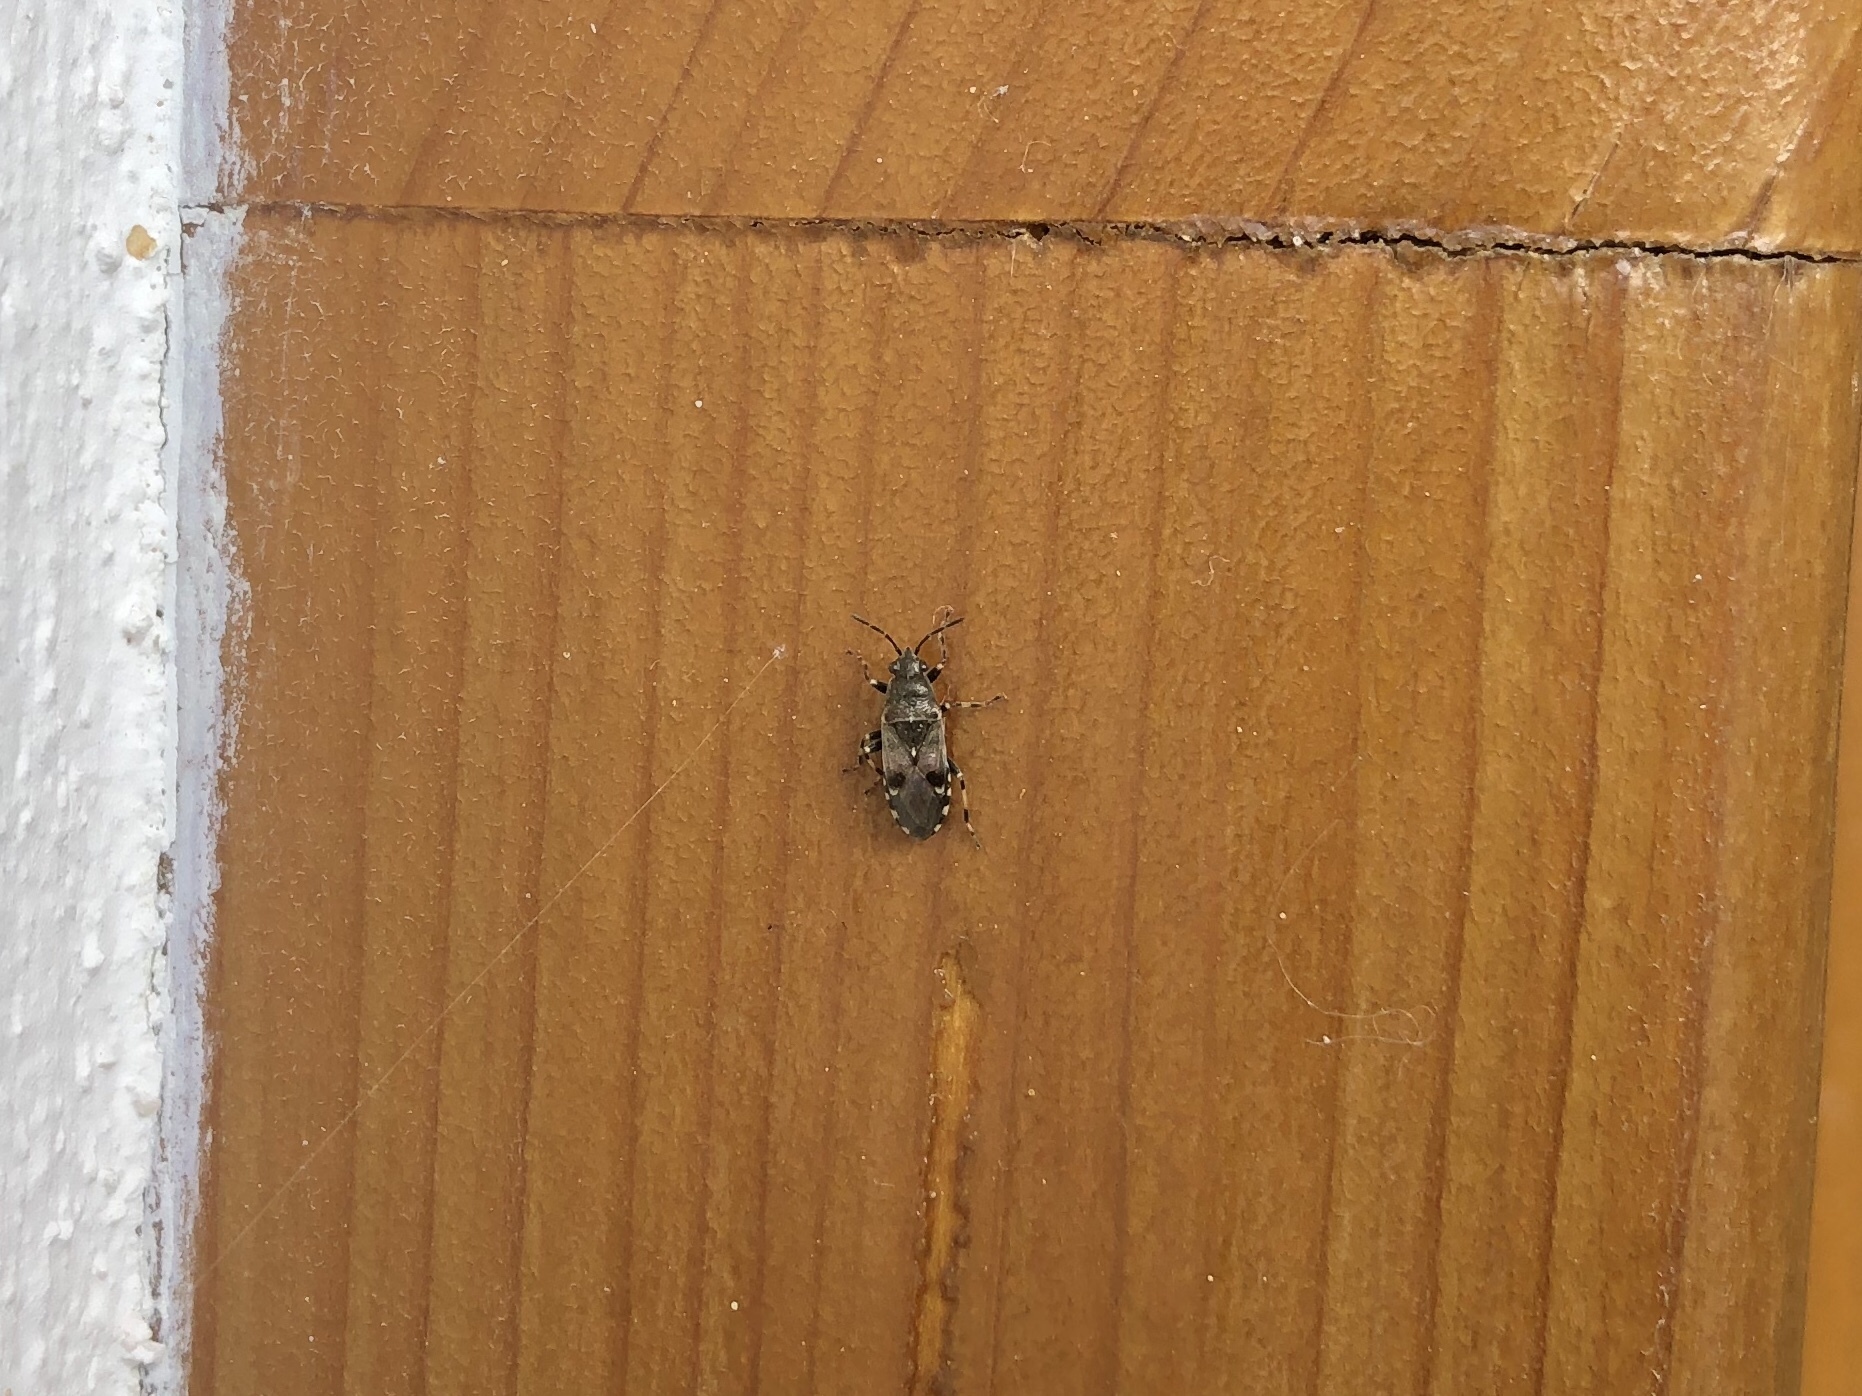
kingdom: Animalia
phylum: Arthropoda
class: Insecta
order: Hemiptera
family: Heterogastridae
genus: Heterogaster
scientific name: Heterogaster cathariae
